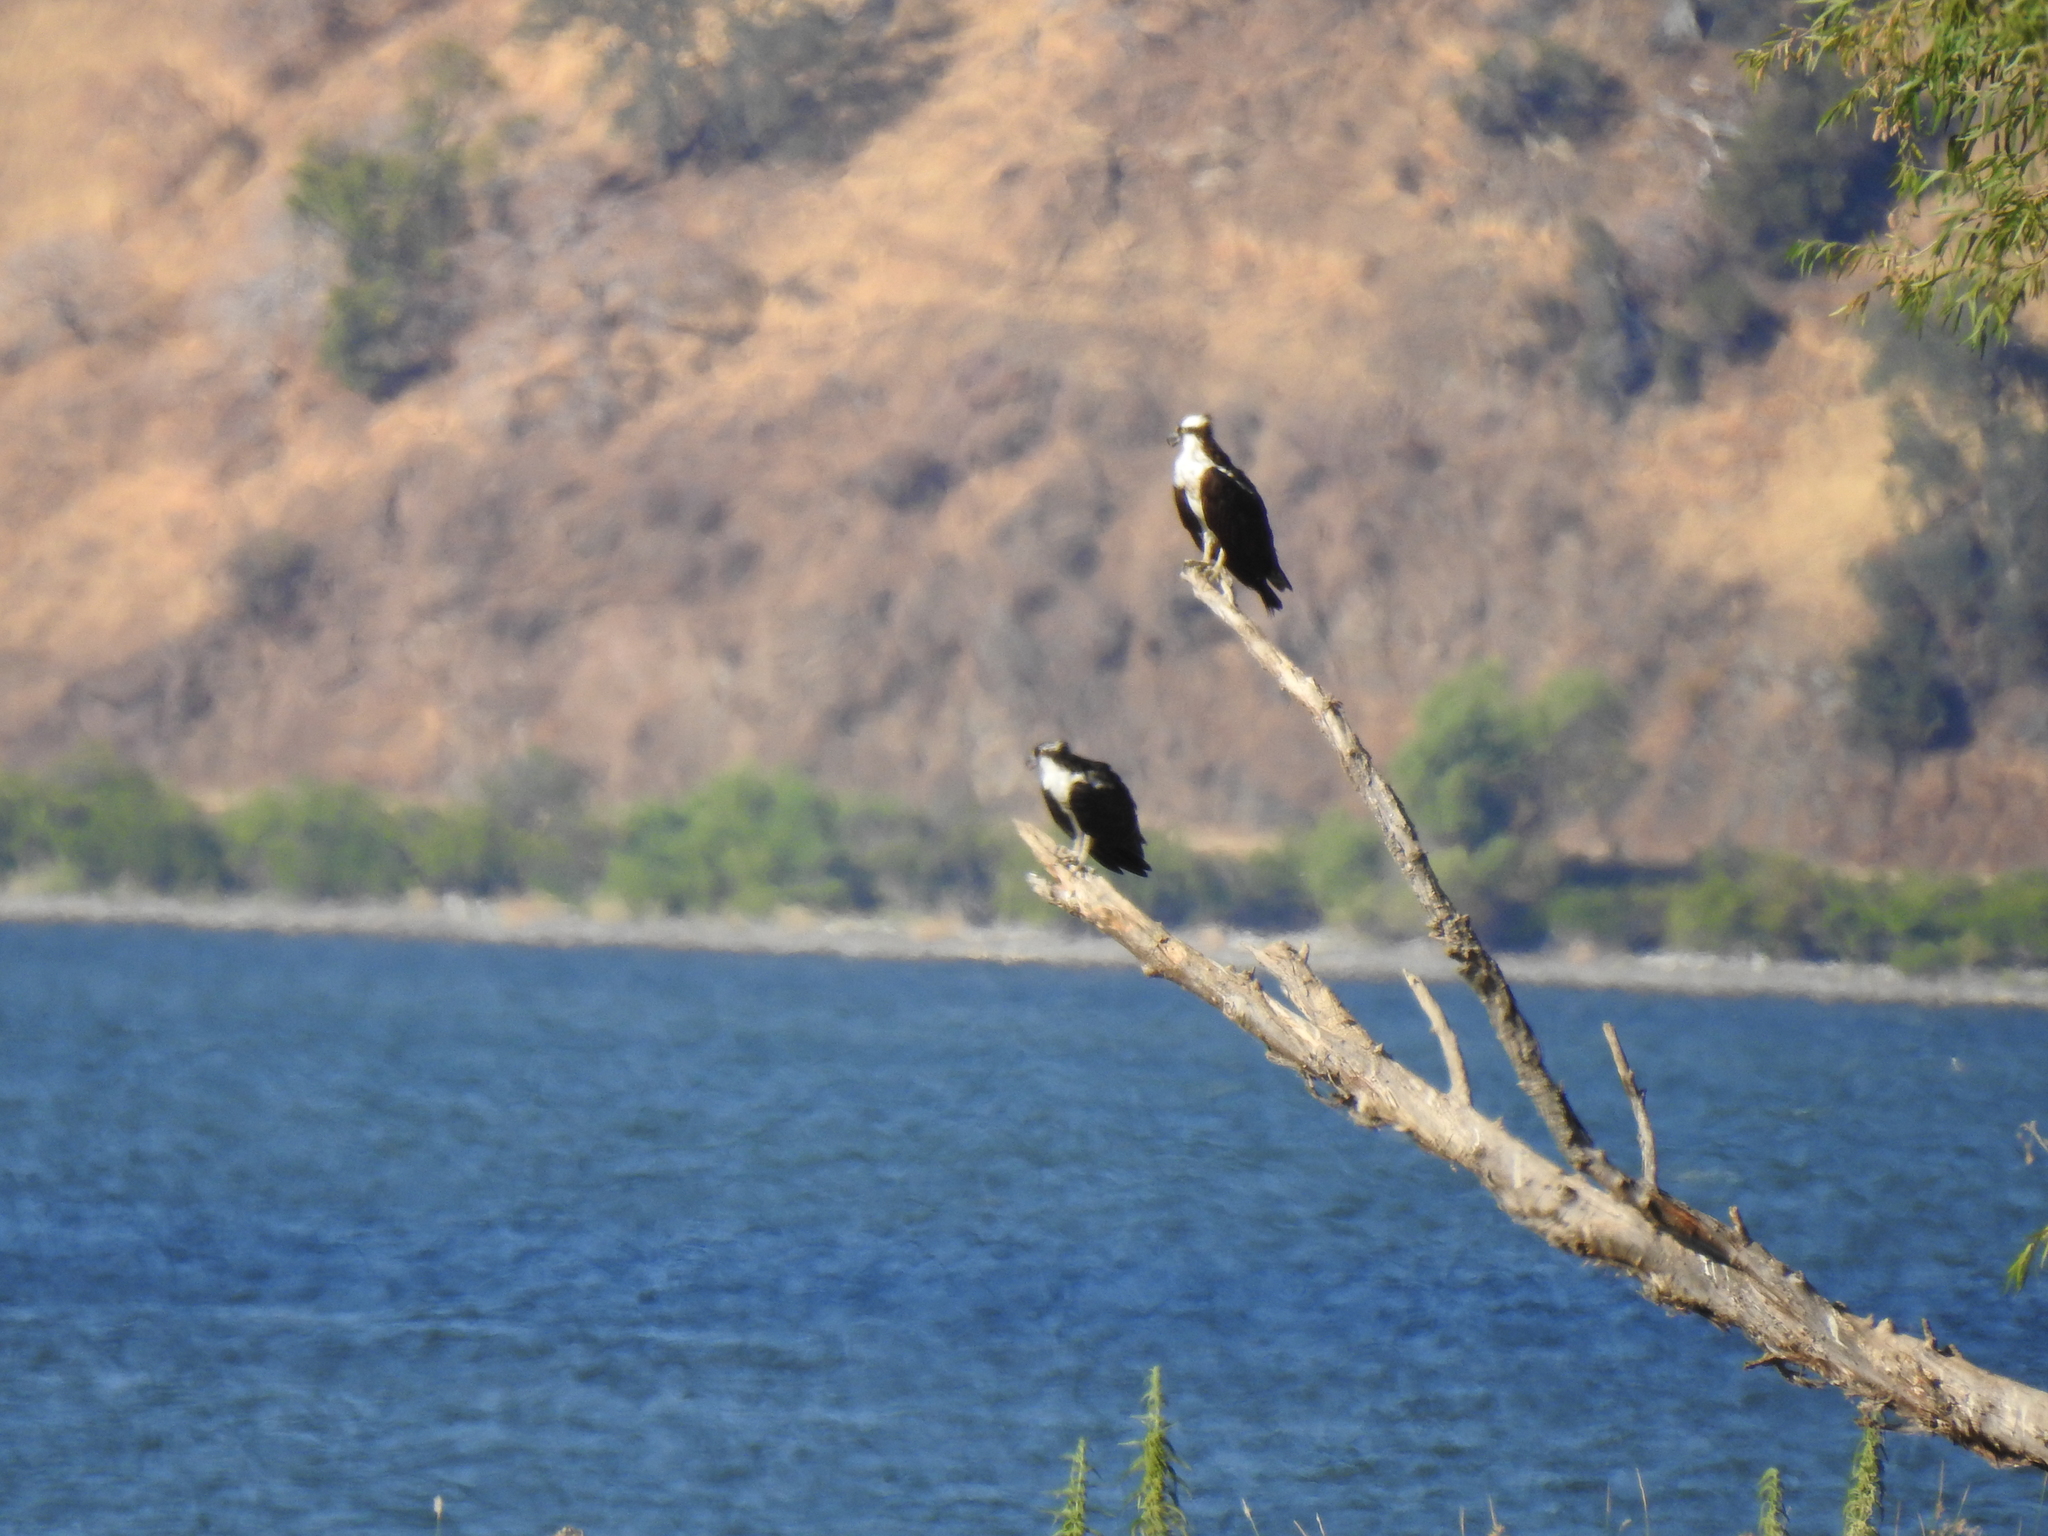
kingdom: Animalia
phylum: Chordata
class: Aves
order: Accipitriformes
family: Pandionidae
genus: Pandion
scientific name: Pandion haliaetus
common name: Osprey
